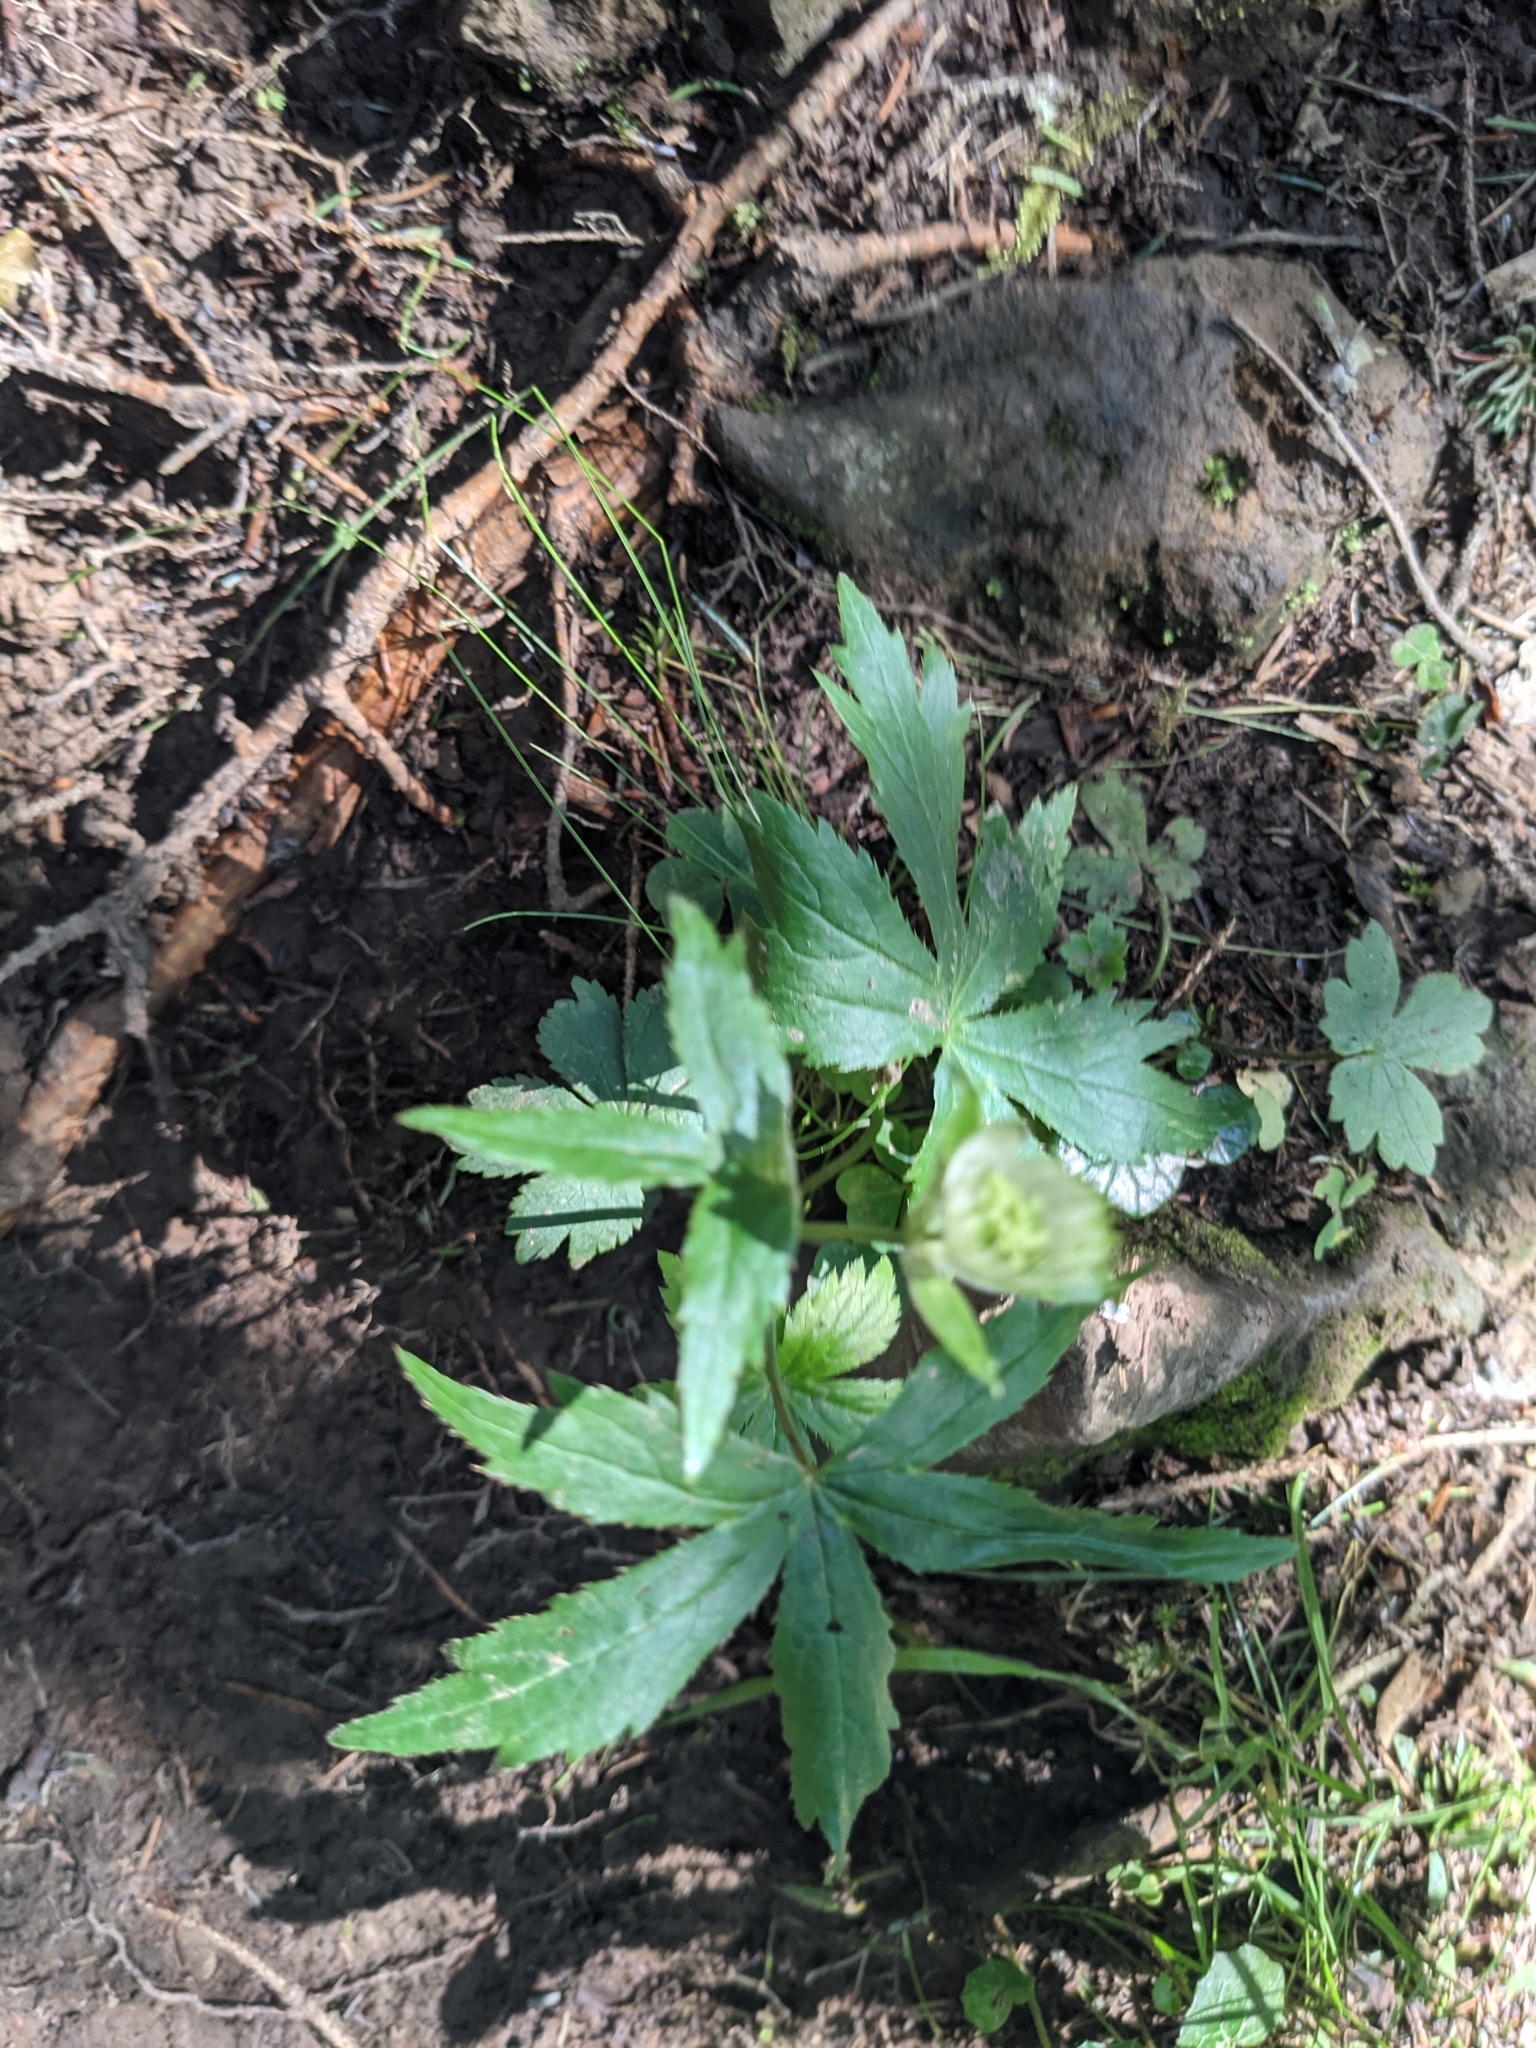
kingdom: Plantae
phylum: Tracheophyta
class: Magnoliopsida
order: Apiales
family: Apiaceae
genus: Astrantia
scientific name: Astrantia major
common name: Greater masterwort
